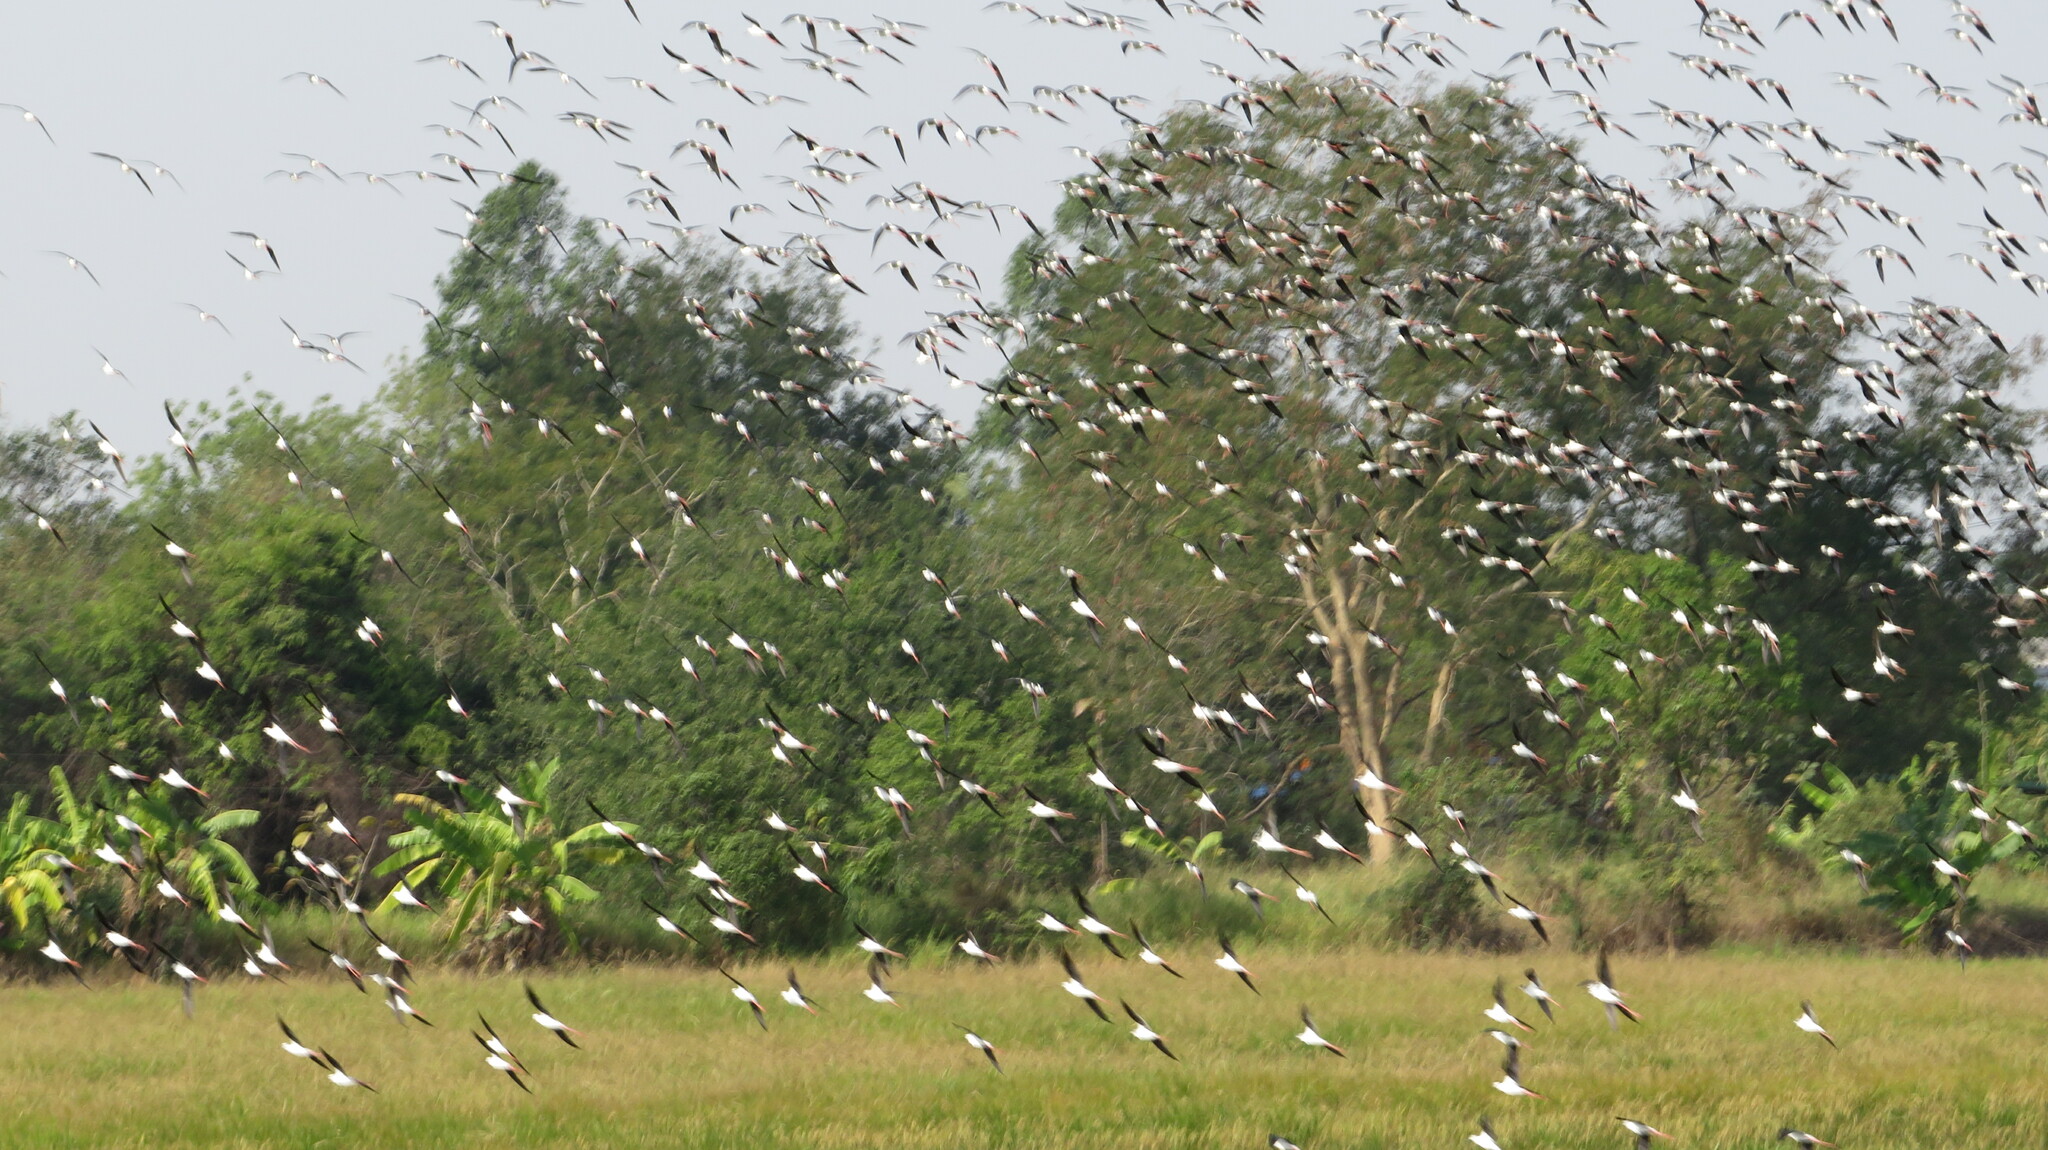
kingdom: Animalia
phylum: Chordata
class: Aves
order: Charadriiformes
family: Recurvirostridae
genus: Himantopus
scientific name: Himantopus himantopus
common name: Black-winged stilt
